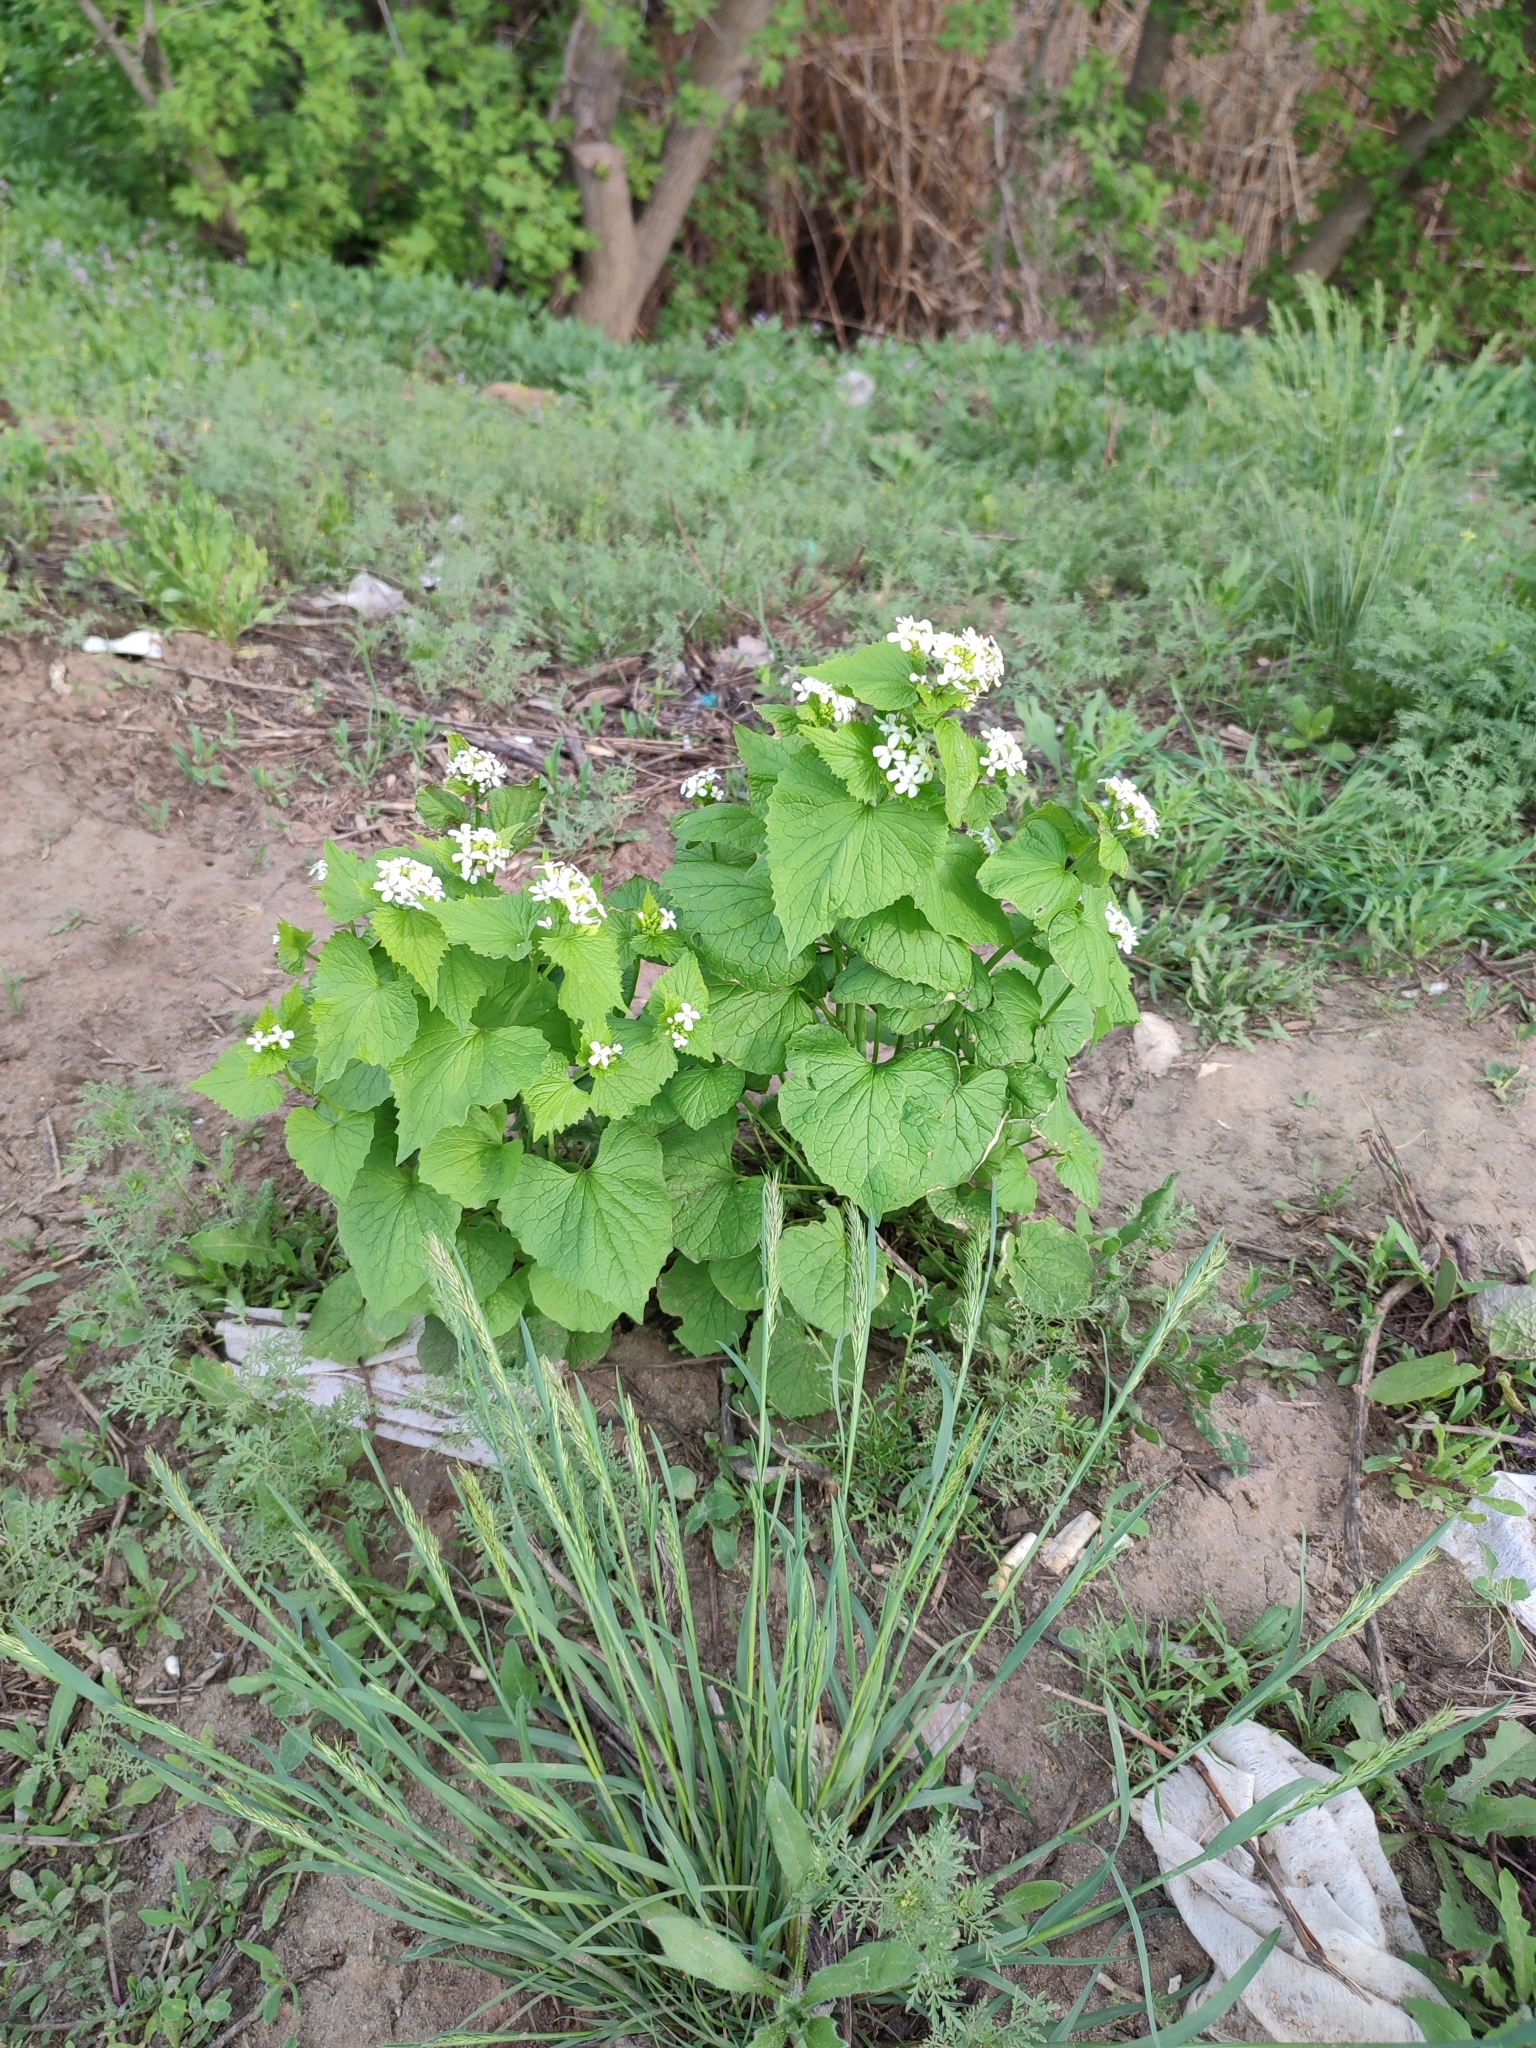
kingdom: Plantae
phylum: Tracheophyta
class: Magnoliopsida
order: Brassicales
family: Brassicaceae
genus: Alliaria
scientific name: Alliaria petiolata
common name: Garlic mustard
